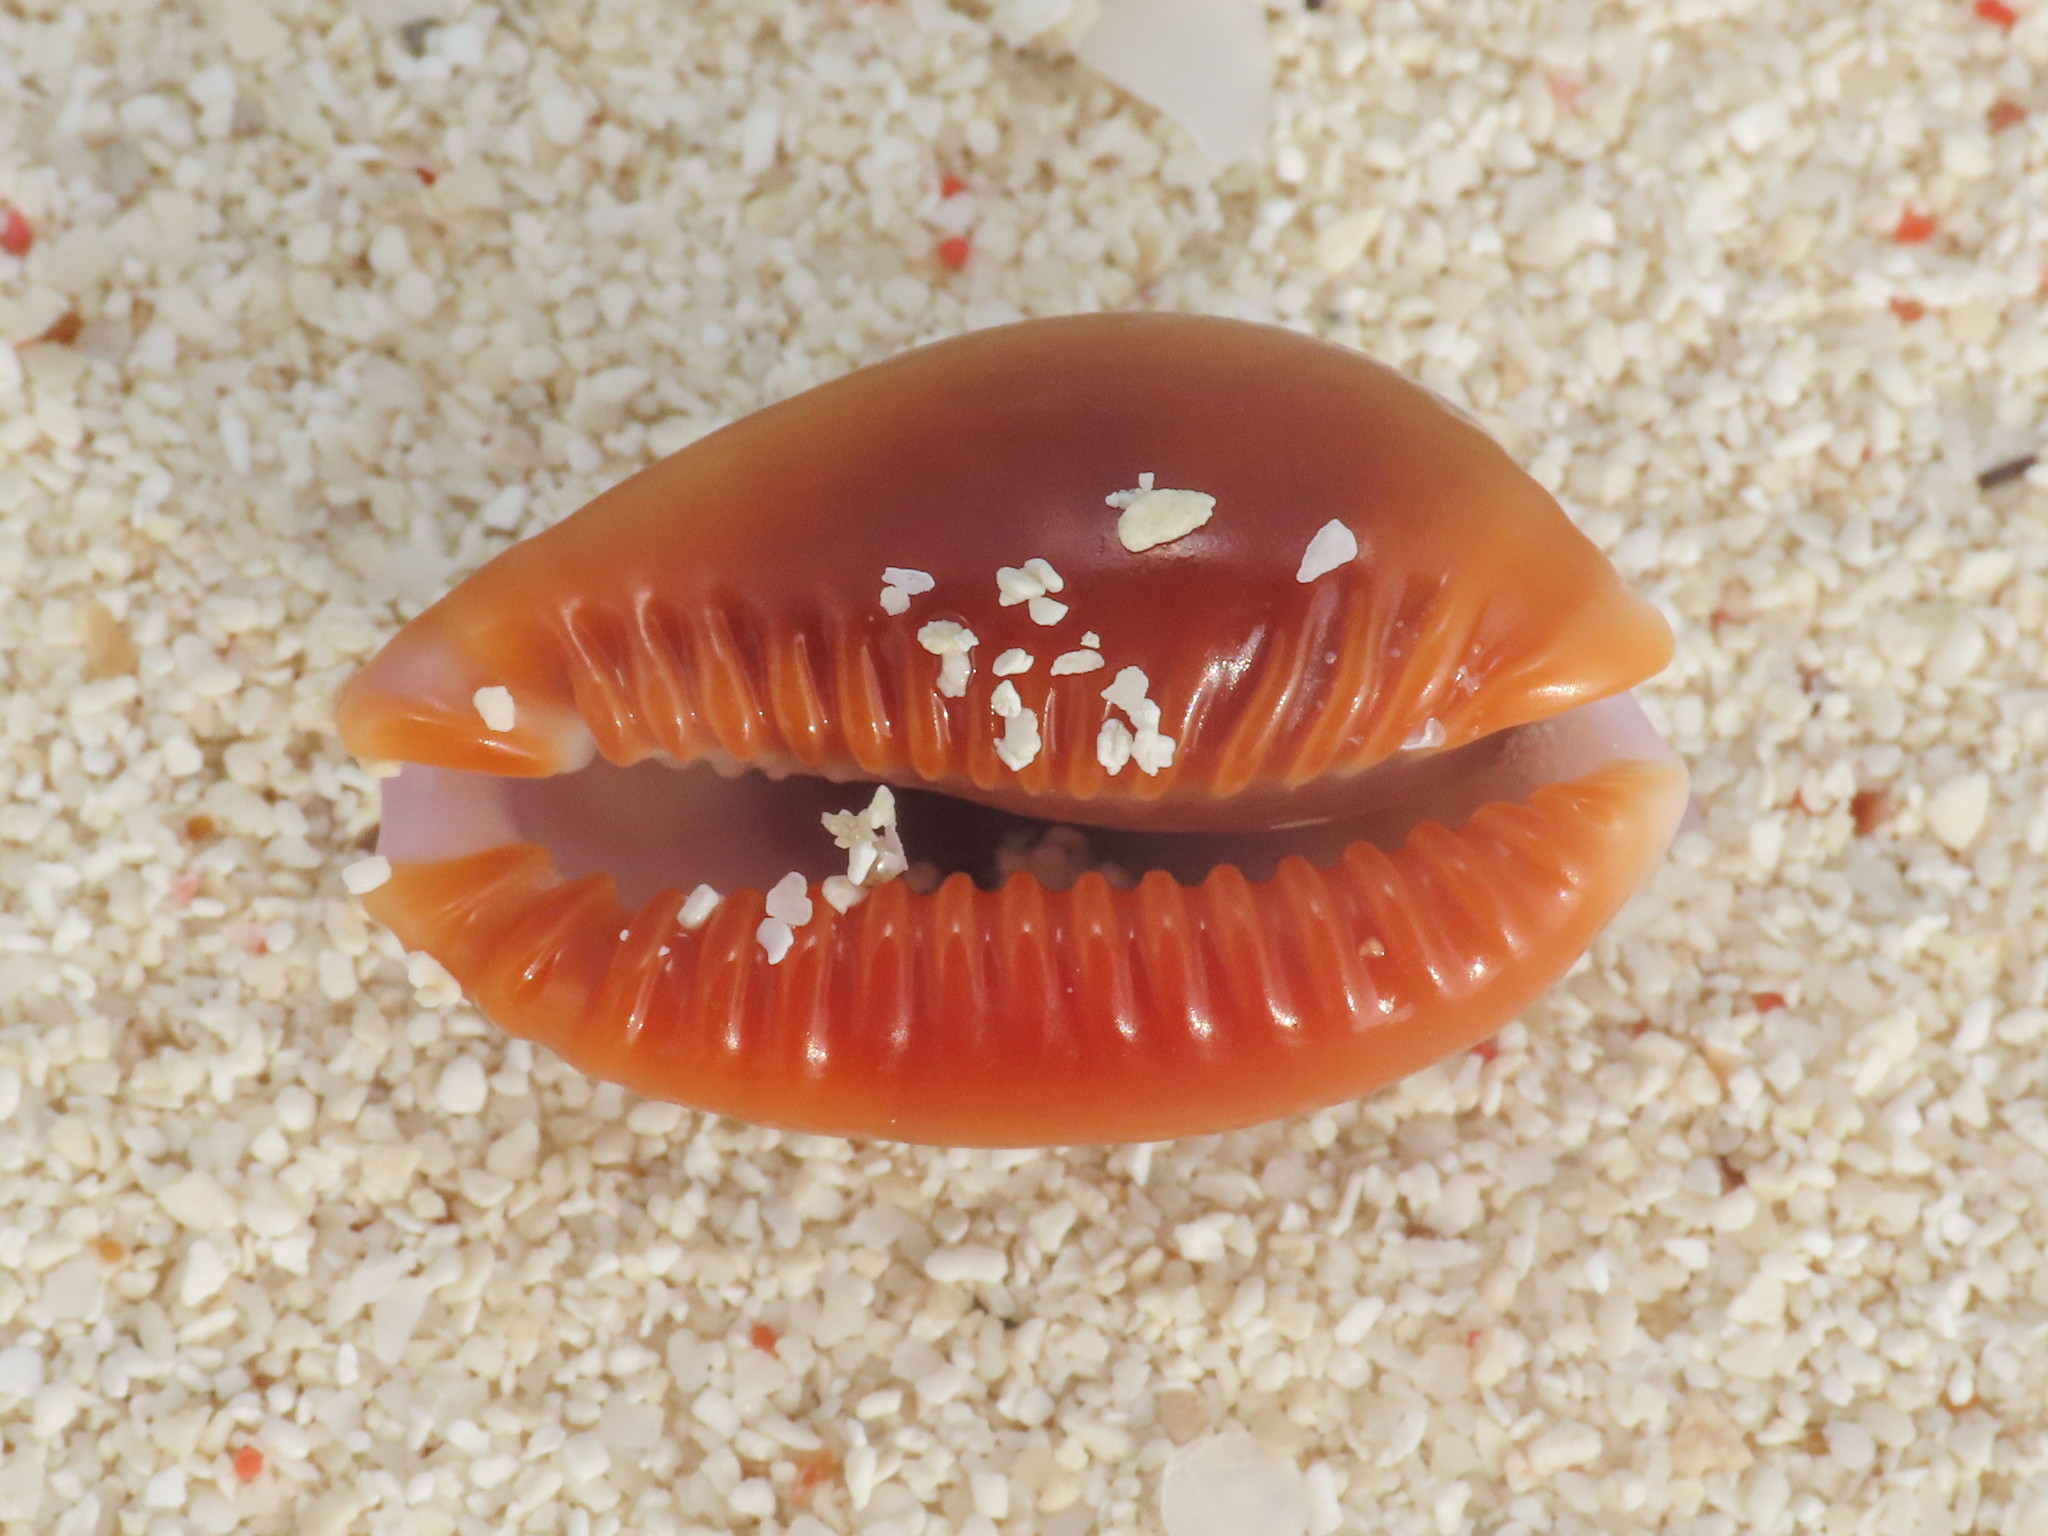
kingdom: Animalia
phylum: Mollusca
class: Gastropoda
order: Littorinimorpha
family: Cypraeidae
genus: Naria
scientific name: Naria helvola
